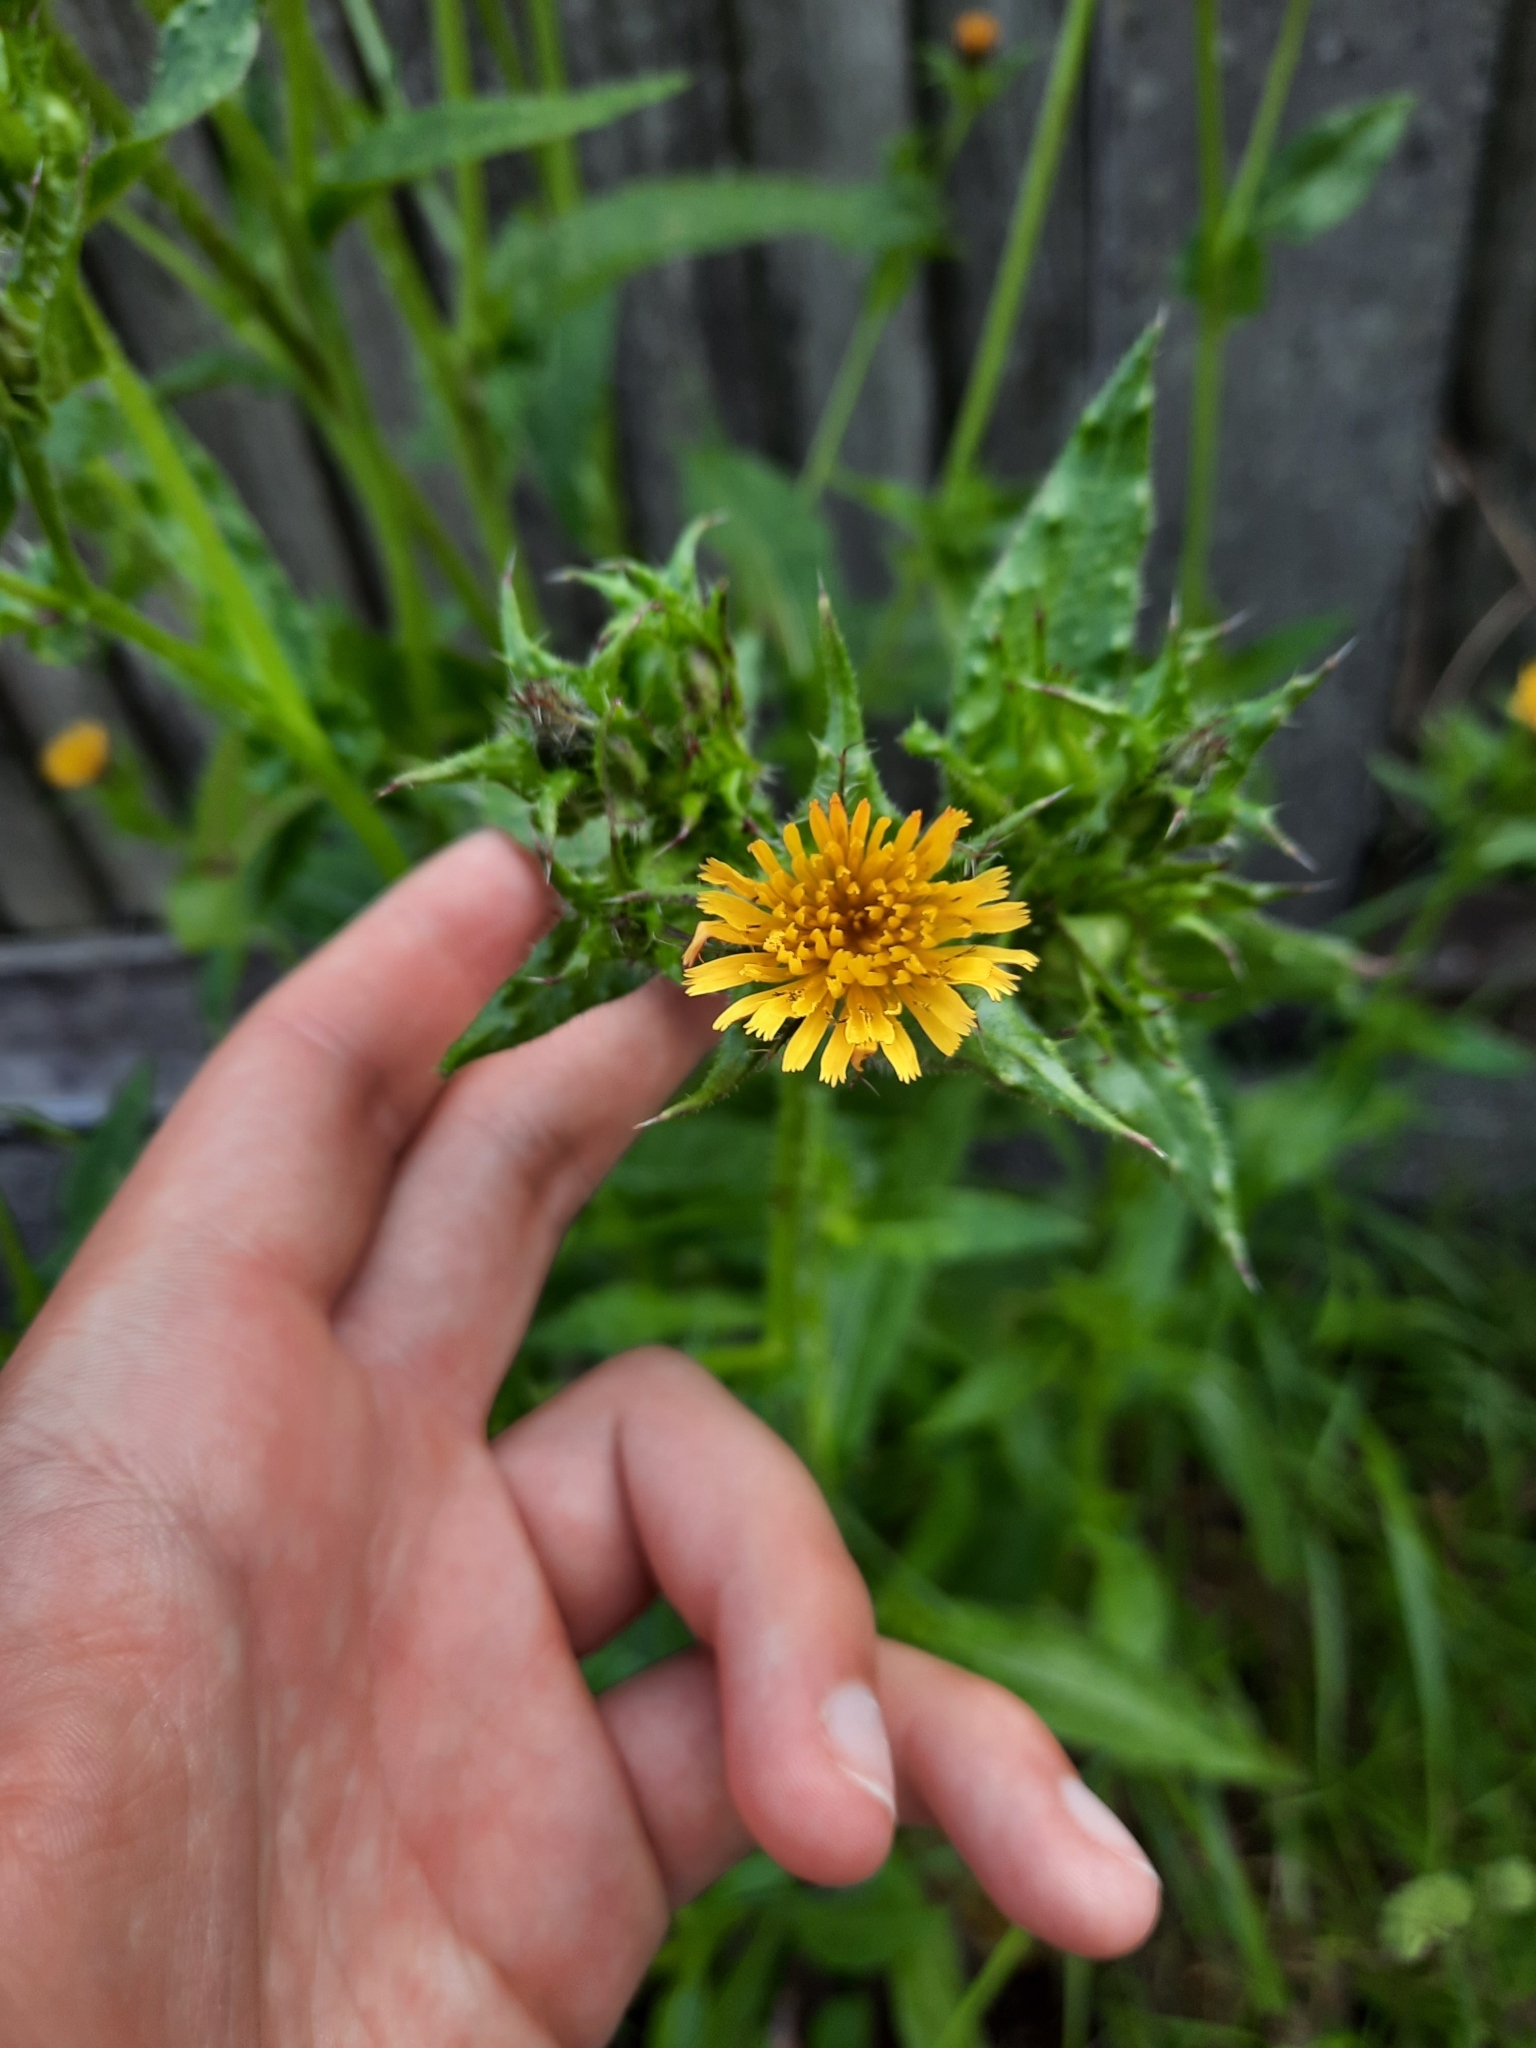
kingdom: Plantae
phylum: Tracheophyta
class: Magnoliopsida
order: Asterales
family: Asteraceae
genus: Helminthotheca
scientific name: Helminthotheca echioides
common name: Ox-tongue
